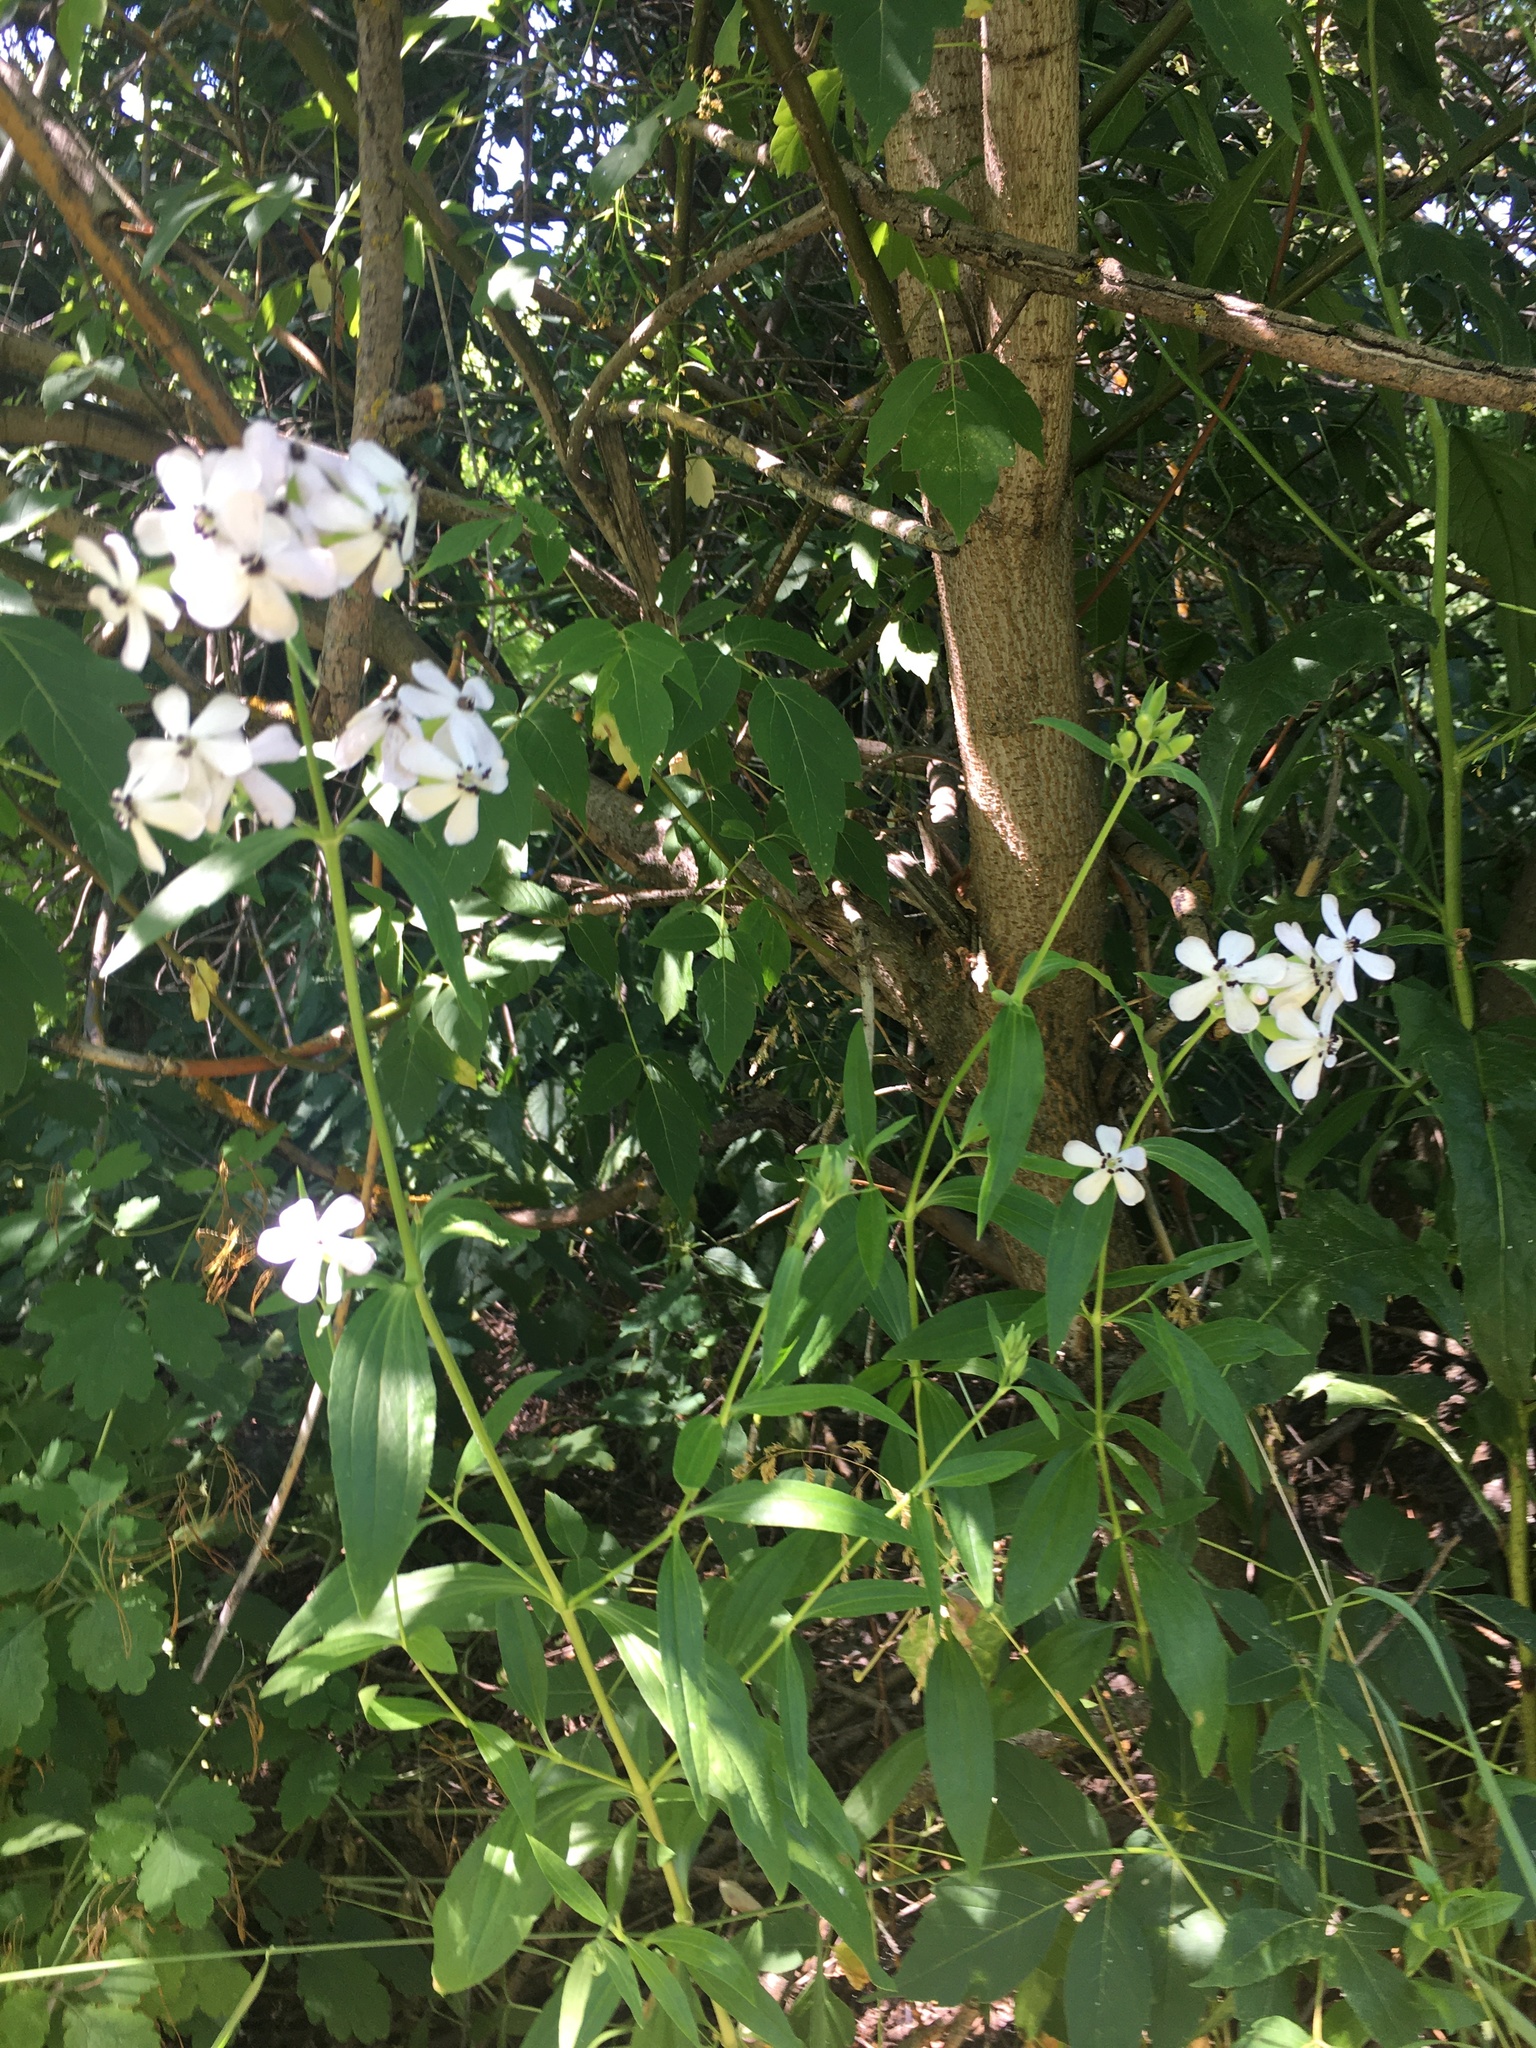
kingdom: Plantae
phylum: Tracheophyta
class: Magnoliopsida
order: Caryophyllales
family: Caryophyllaceae
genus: Saponaria
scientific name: Saponaria officinalis
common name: Soapwort
